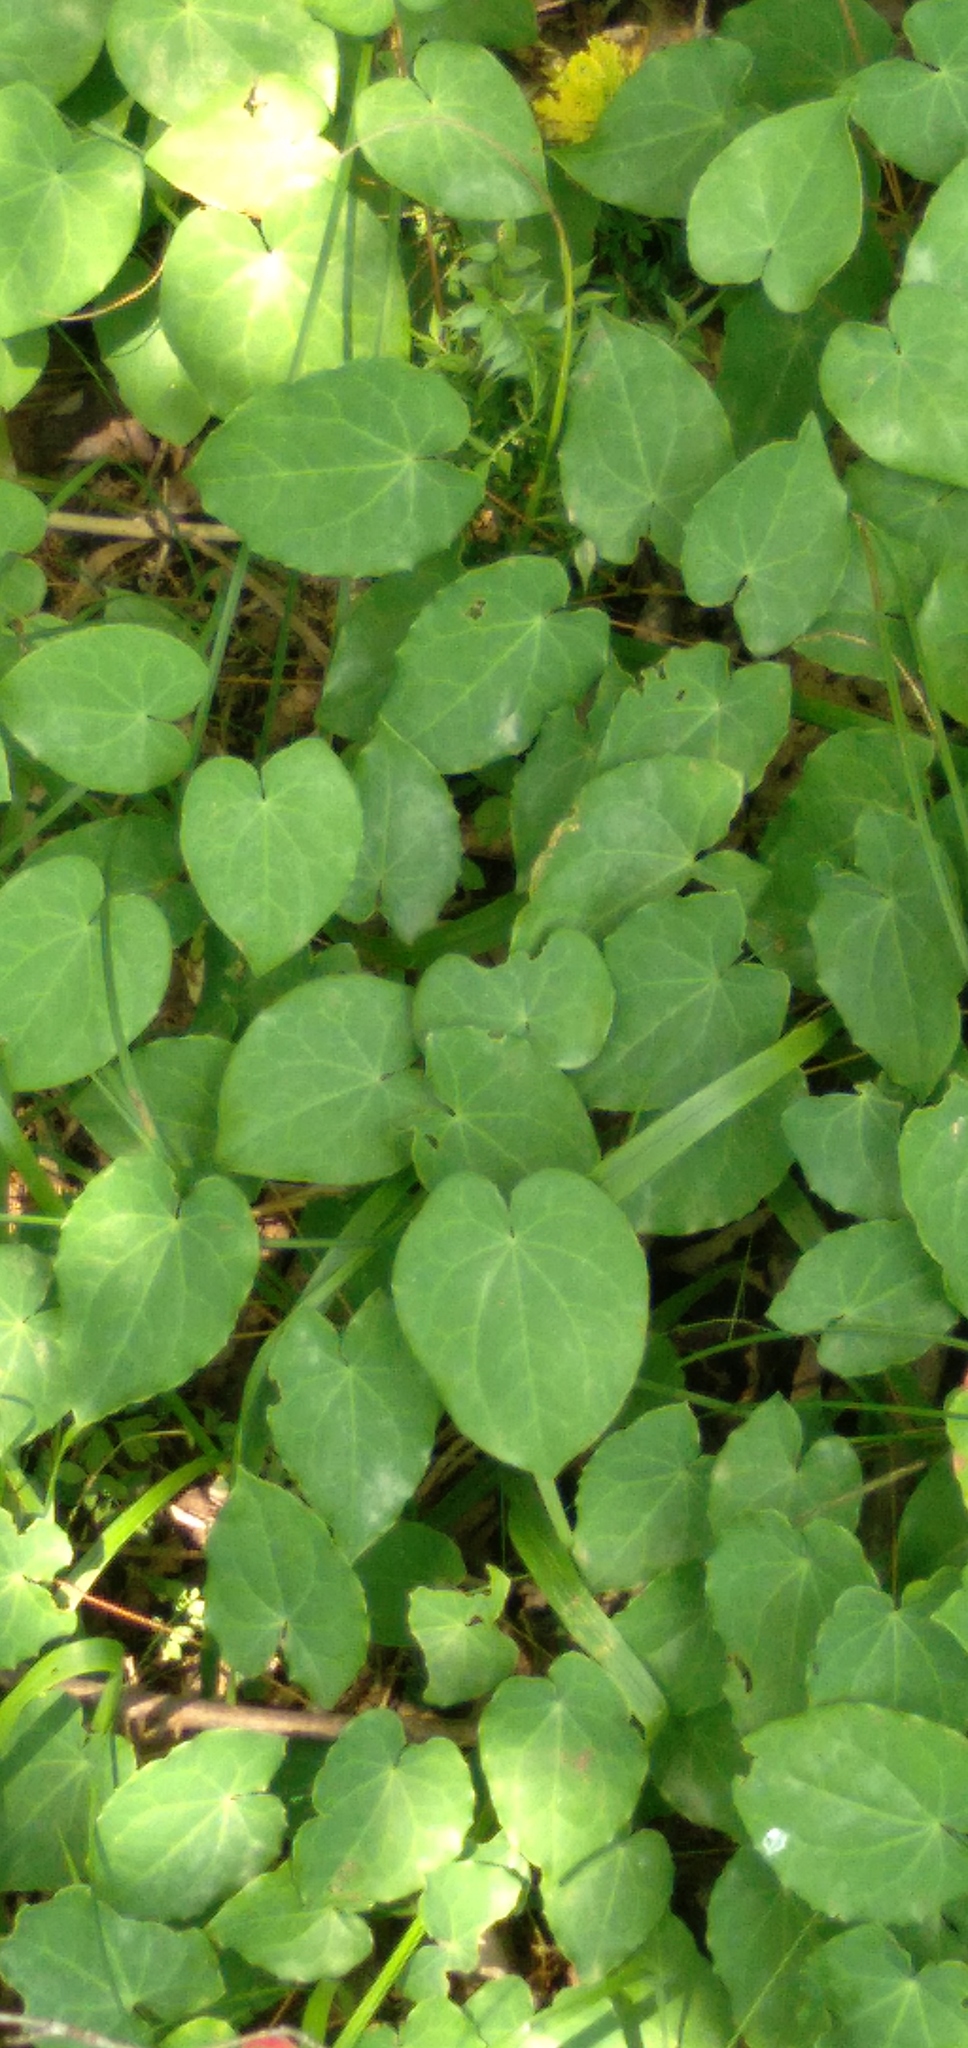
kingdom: Plantae
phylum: Tracheophyta
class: Magnoliopsida
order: Ranunculales
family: Berberidaceae
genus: Epimedium
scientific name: Epimedium pinnatum
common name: Caucasian barrenwort
